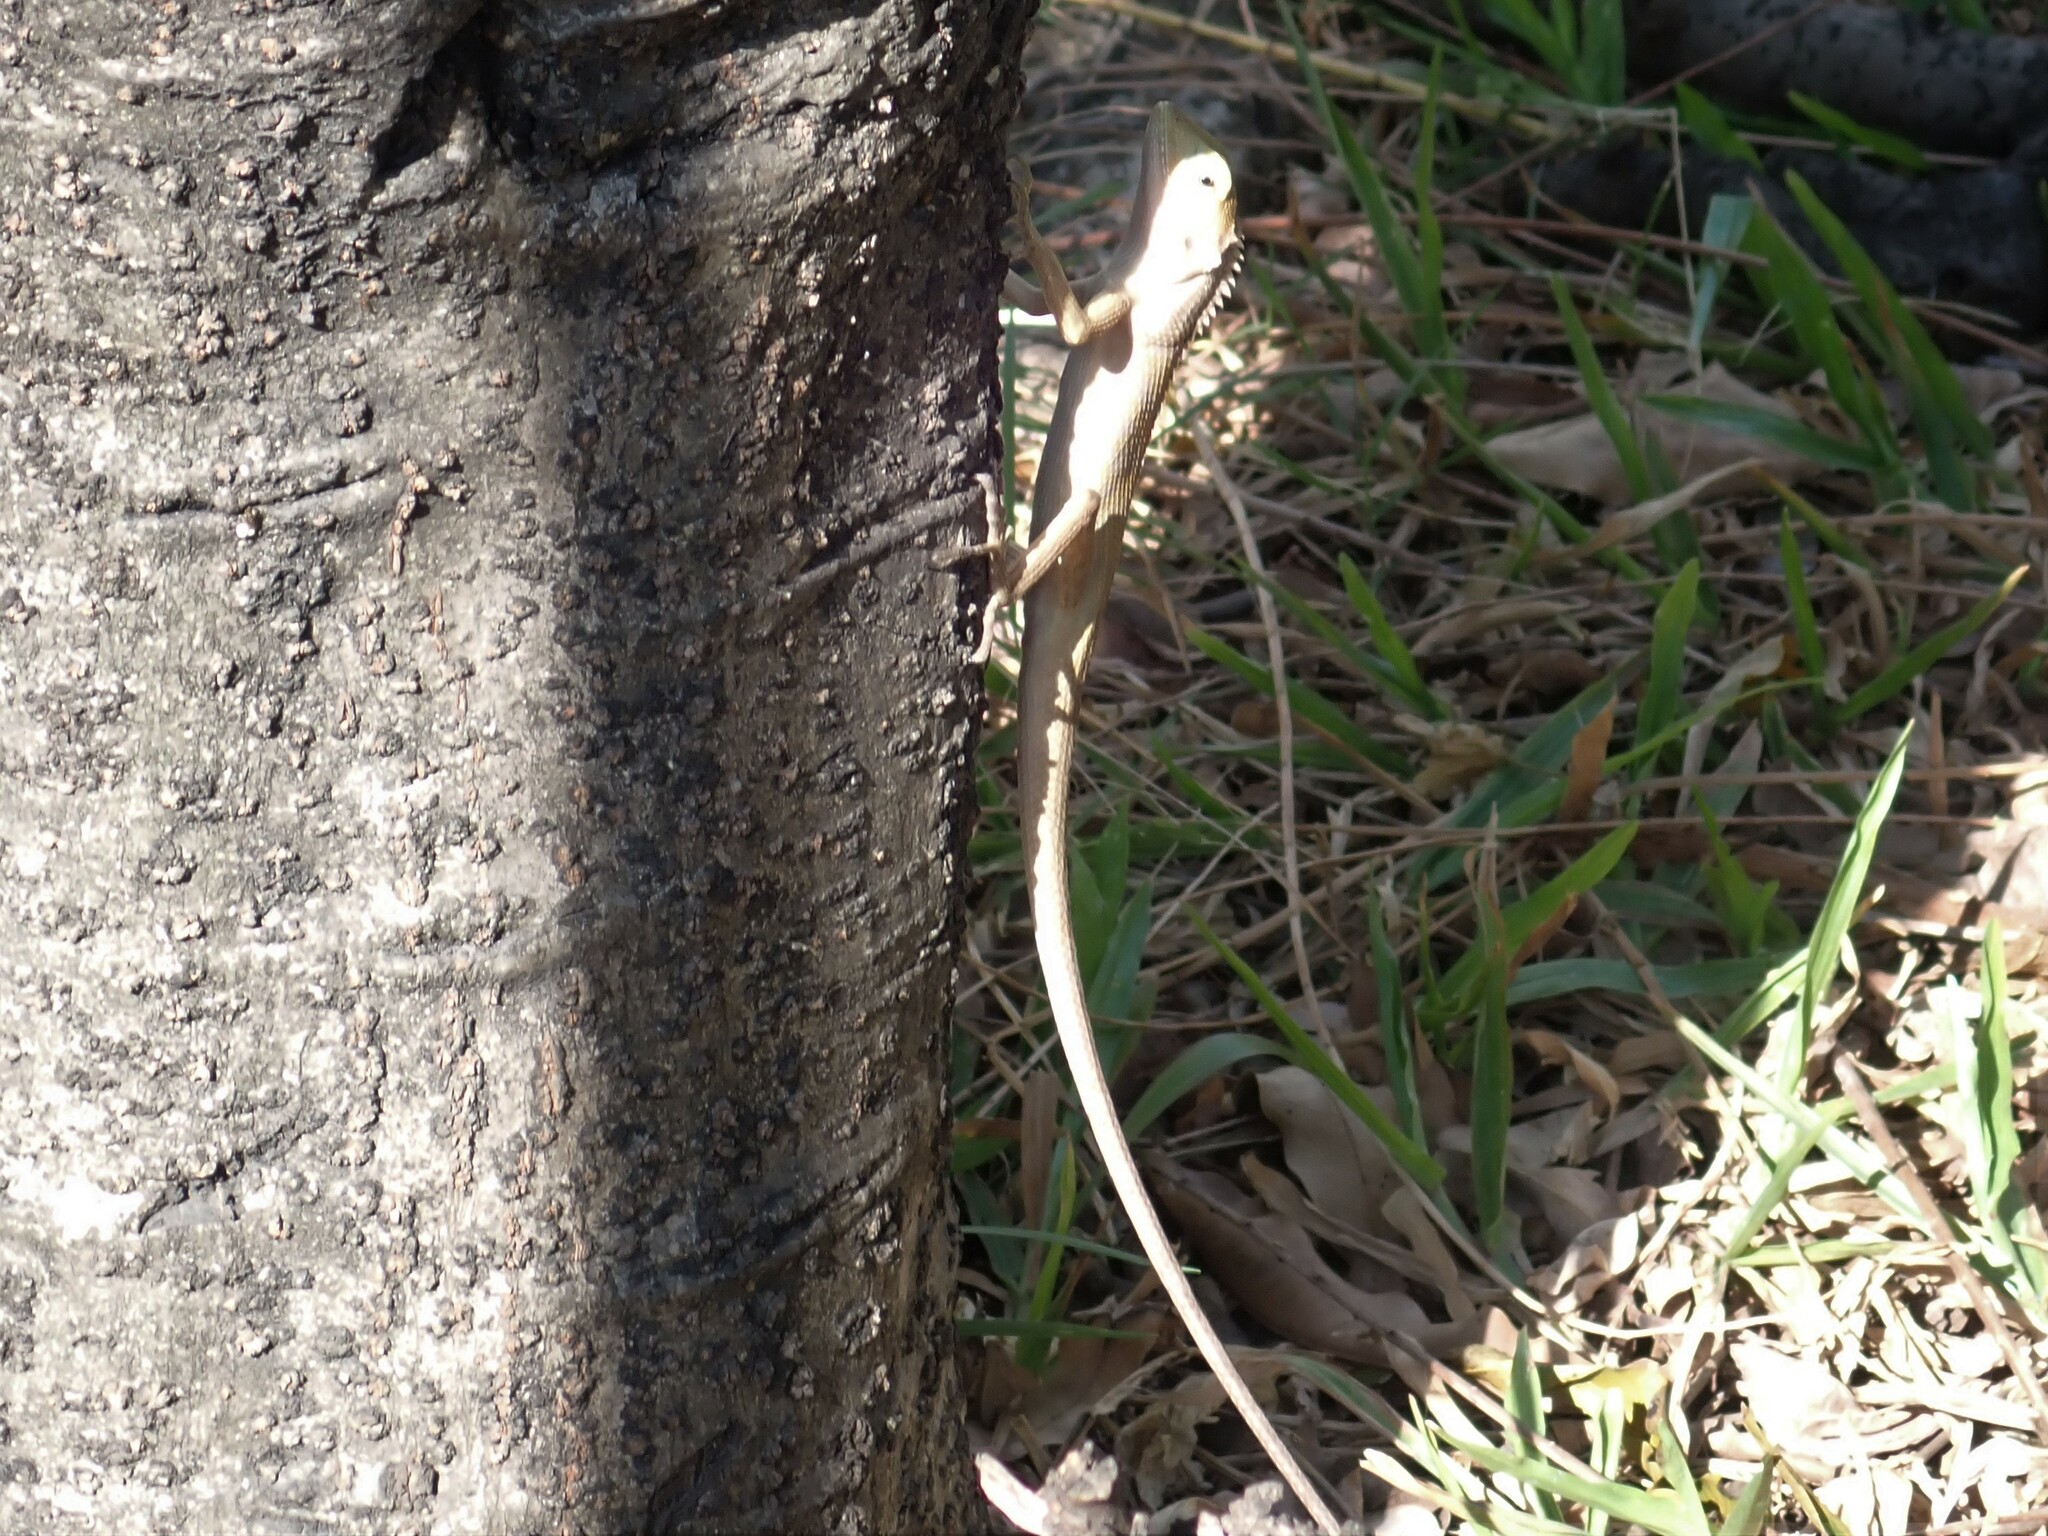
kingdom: Animalia
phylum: Chordata
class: Squamata
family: Agamidae
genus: Calotes
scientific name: Calotes versicolor
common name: Oriental garden lizard
